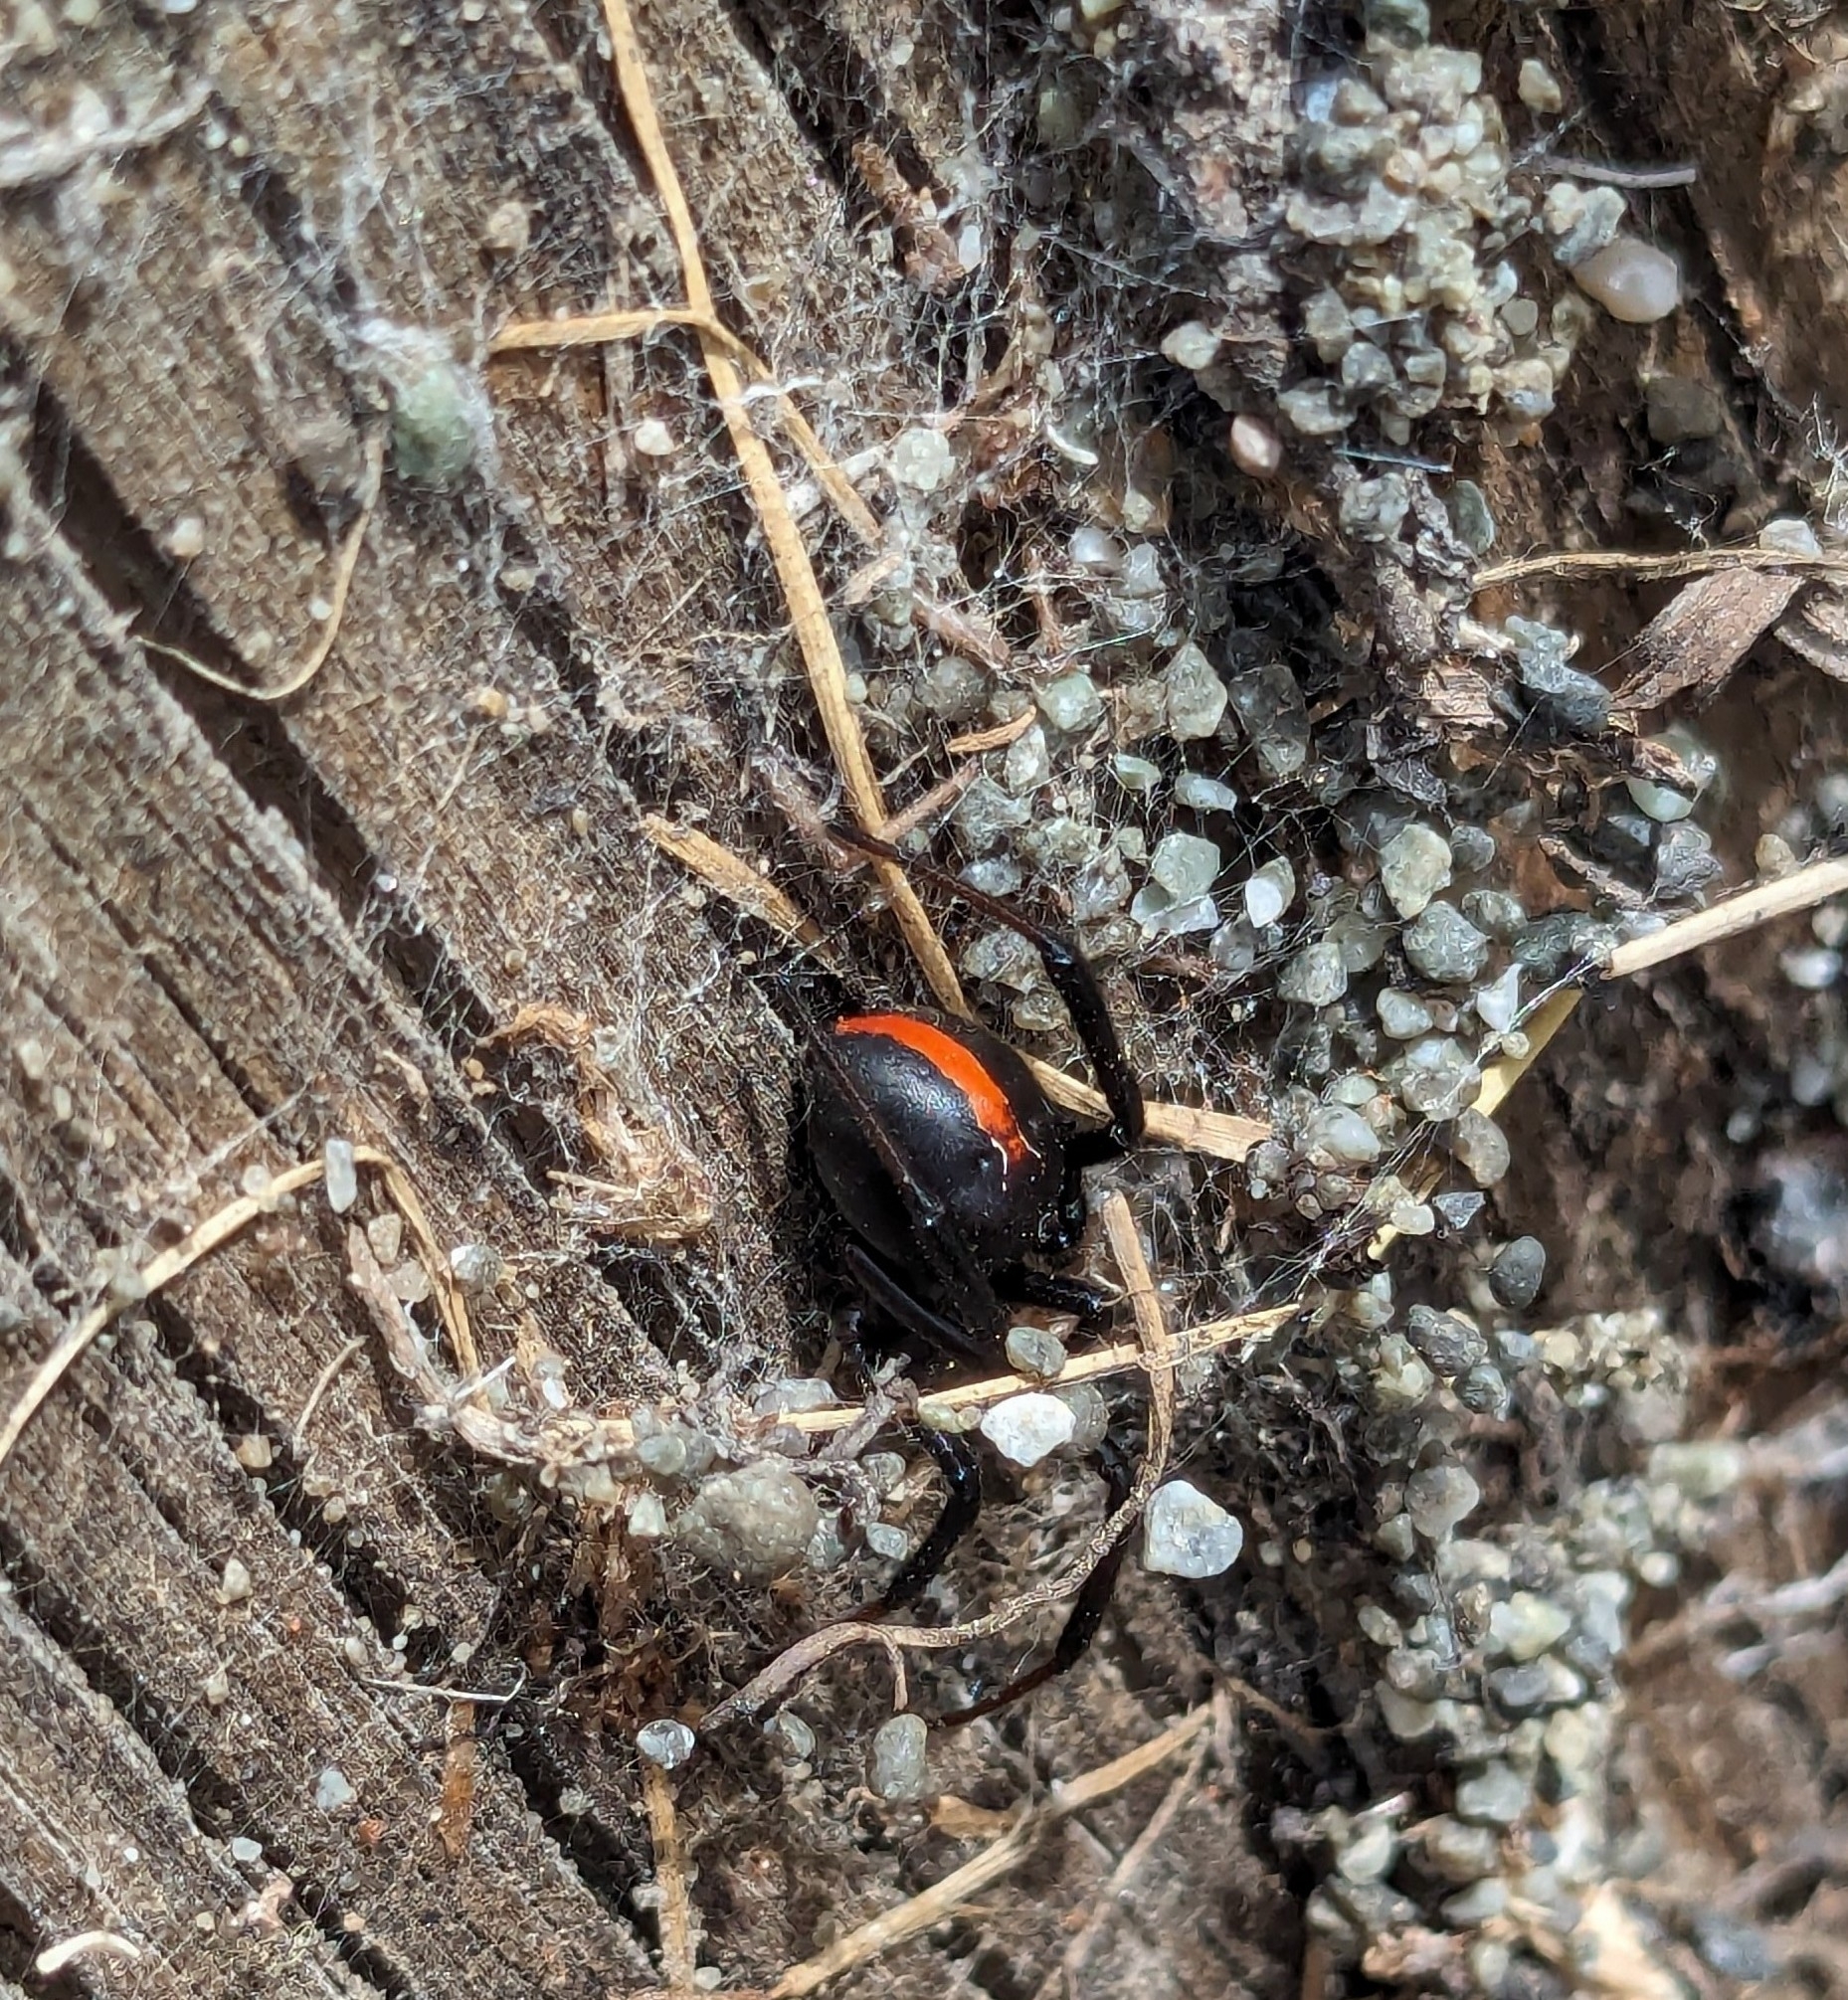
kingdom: Animalia
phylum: Arthropoda
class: Arachnida
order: Araneae
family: Theridiidae
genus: Latrodectus
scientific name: Latrodectus katipo
